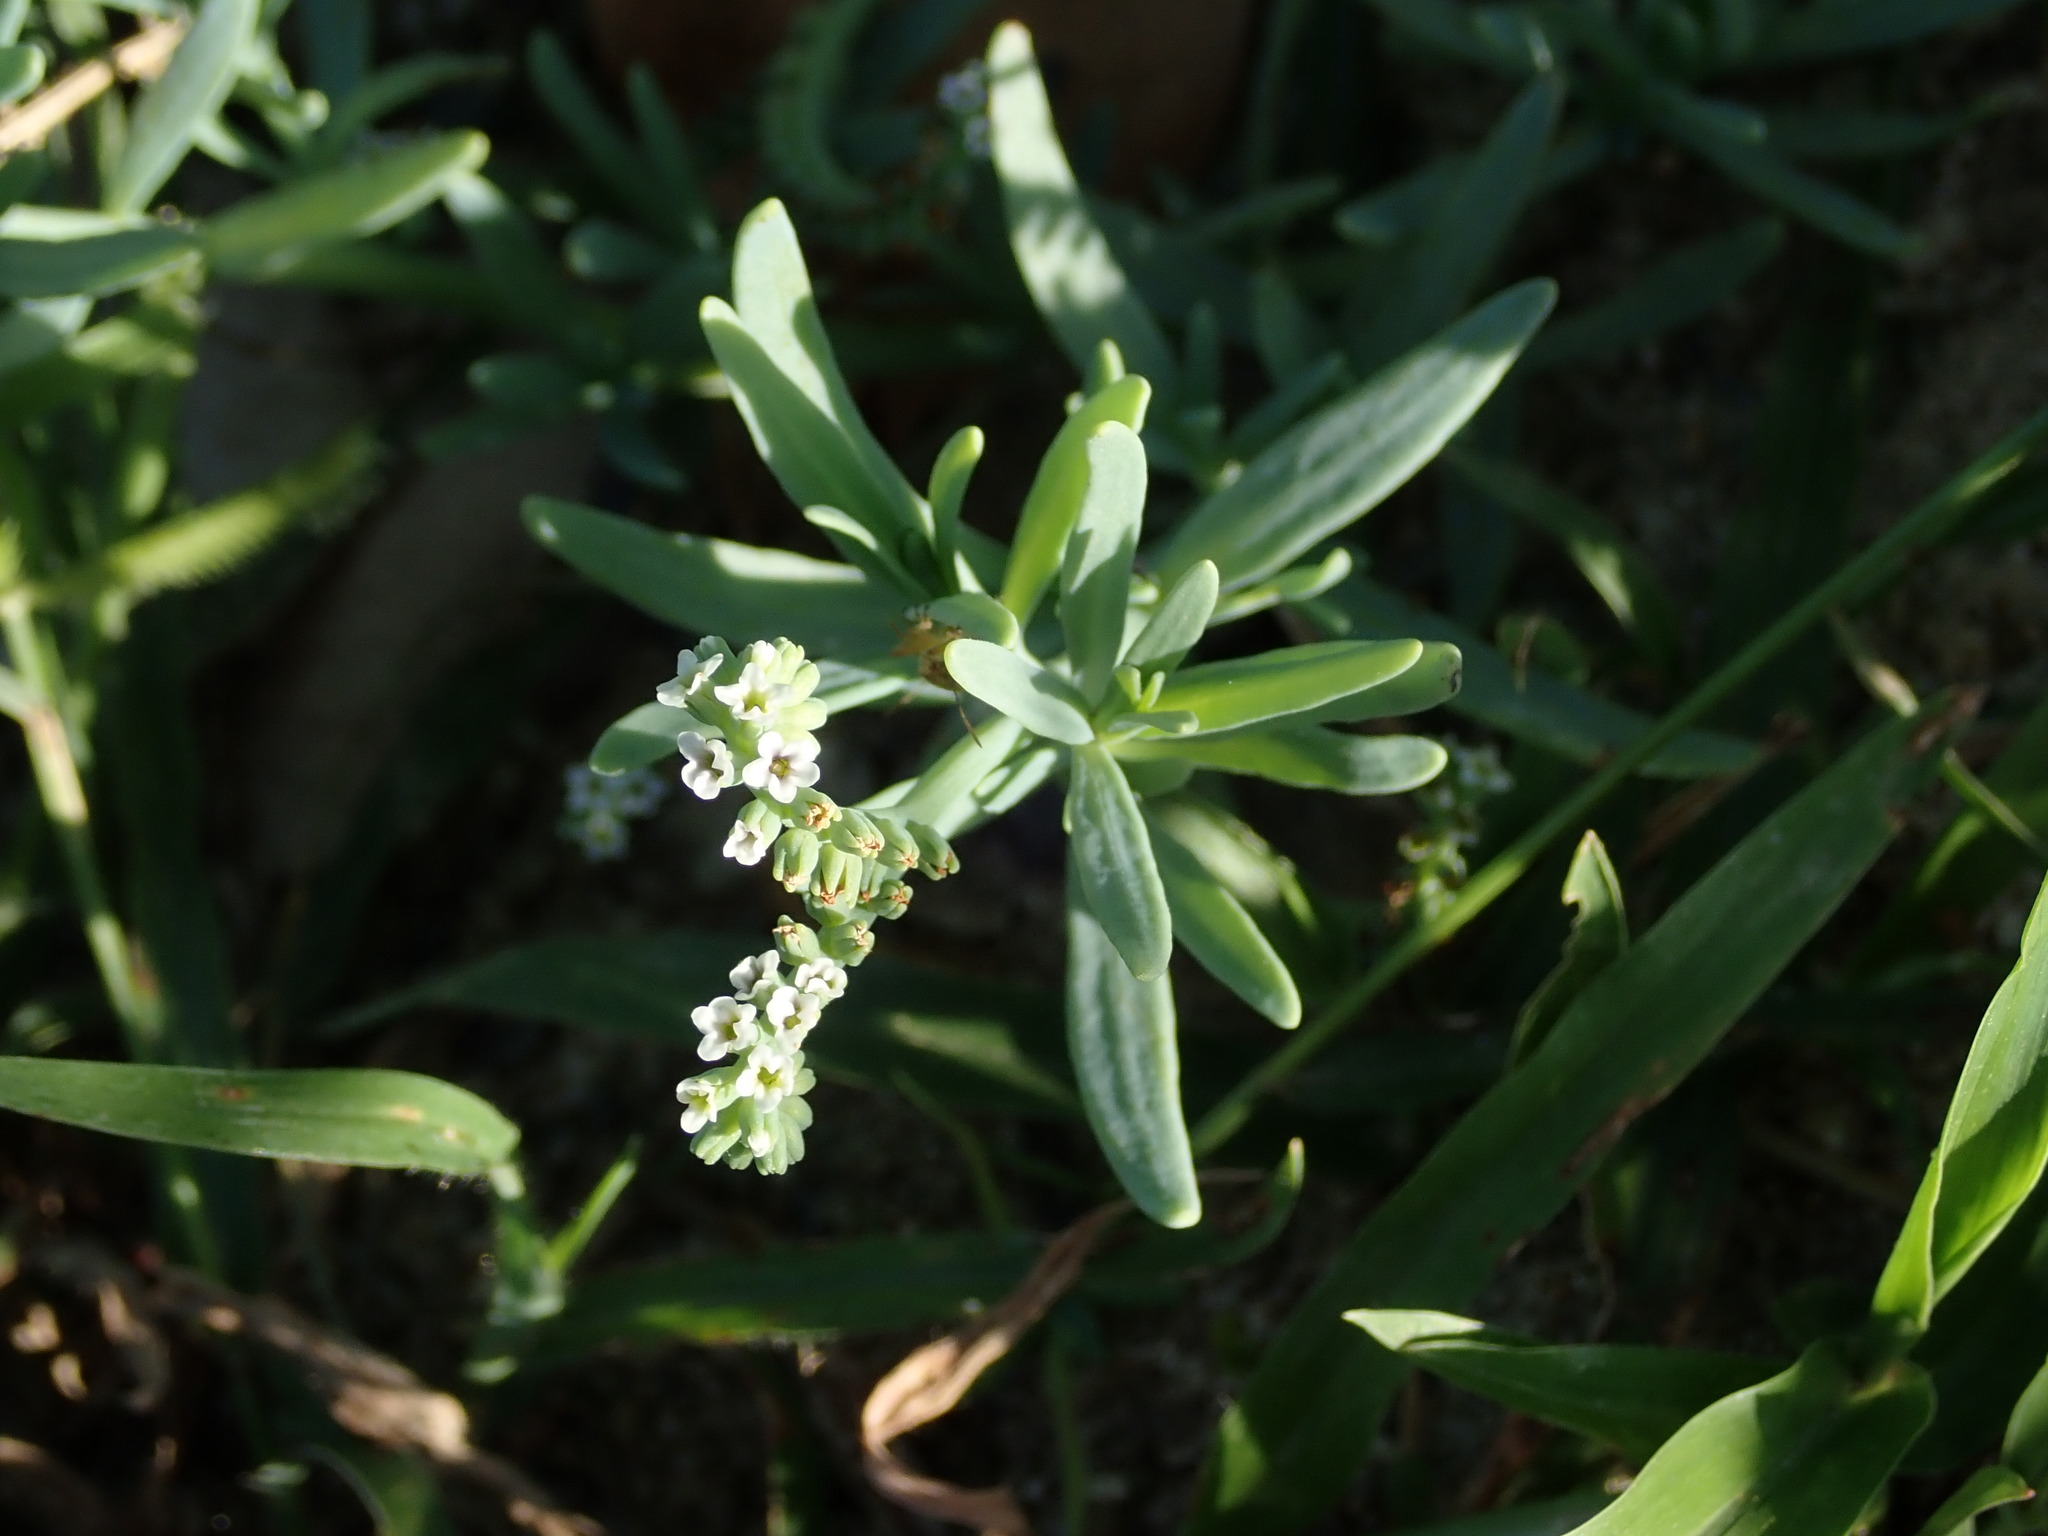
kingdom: Plantae
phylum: Tracheophyta
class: Magnoliopsida
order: Boraginales
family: Heliotropiaceae
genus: Heliotropium
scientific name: Heliotropium curassavicum
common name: Seaside heliotrope
